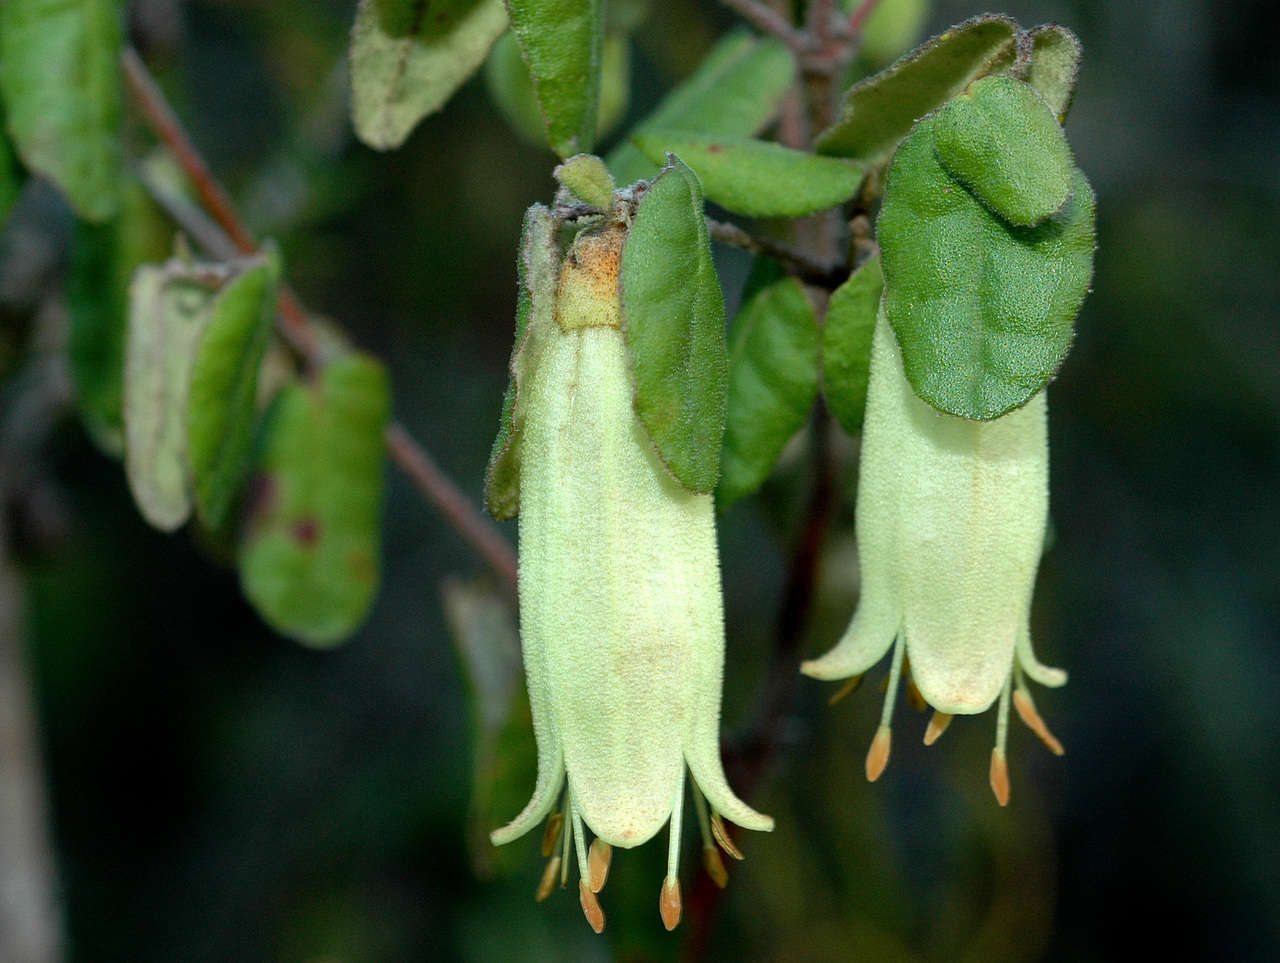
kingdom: Plantae
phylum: Tracheophyta
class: Magnoliopsida
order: Sapindales
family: Rutaceae
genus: Correa
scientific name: Correa reflexa
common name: Common correa
